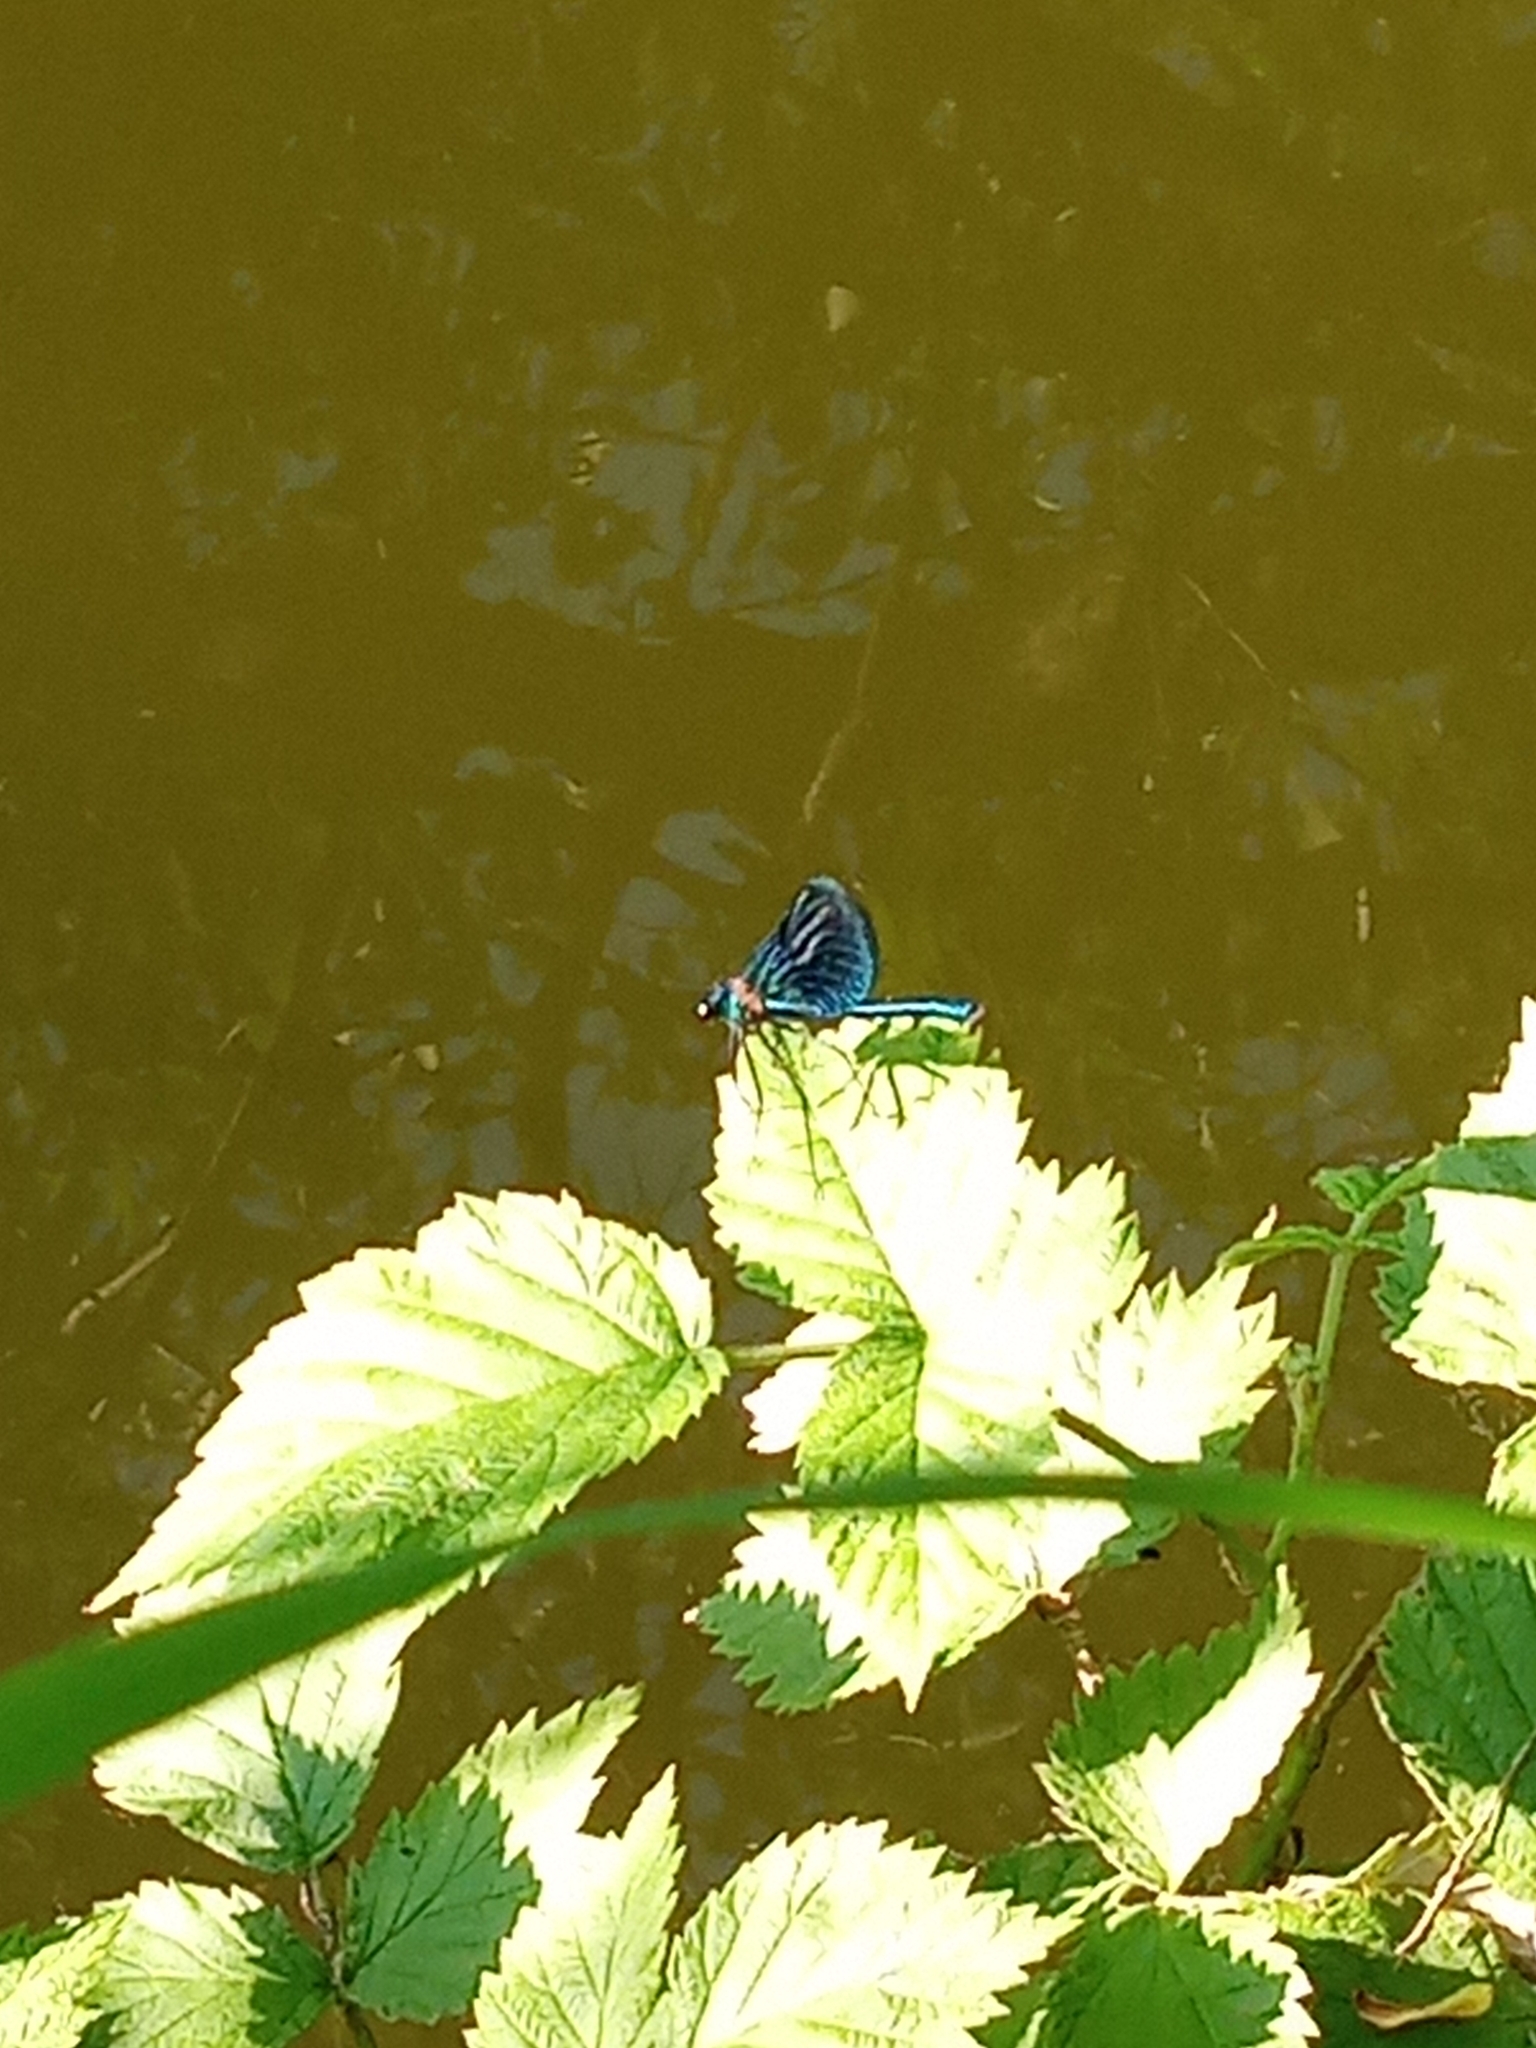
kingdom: Animalia
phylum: Arthropoda
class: Insecta
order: Odonata
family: Calopterygidae
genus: Calopteryx
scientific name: Calopteryx splendens
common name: Banded demoiselle
